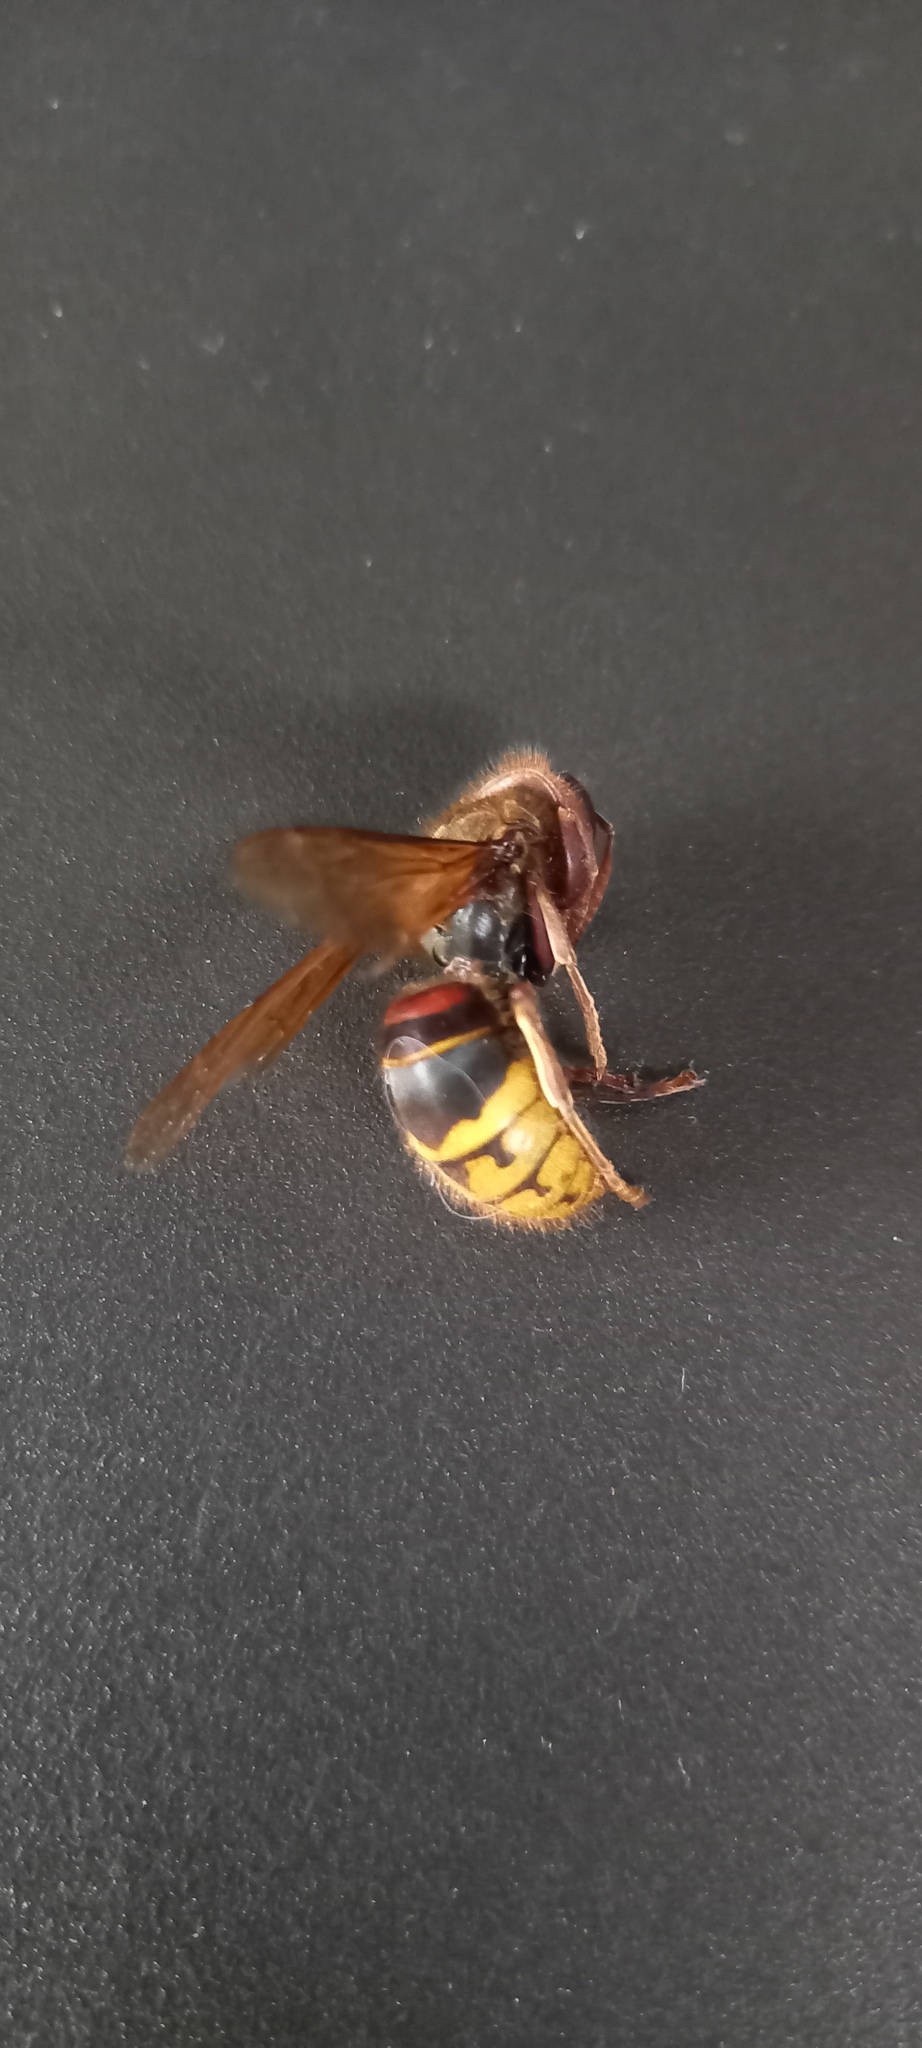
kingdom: Animalia
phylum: Arthropoda
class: Insecta
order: Hymenoptera
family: Vespidae
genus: Vespa
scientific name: Vespa crabro
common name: Hornet
